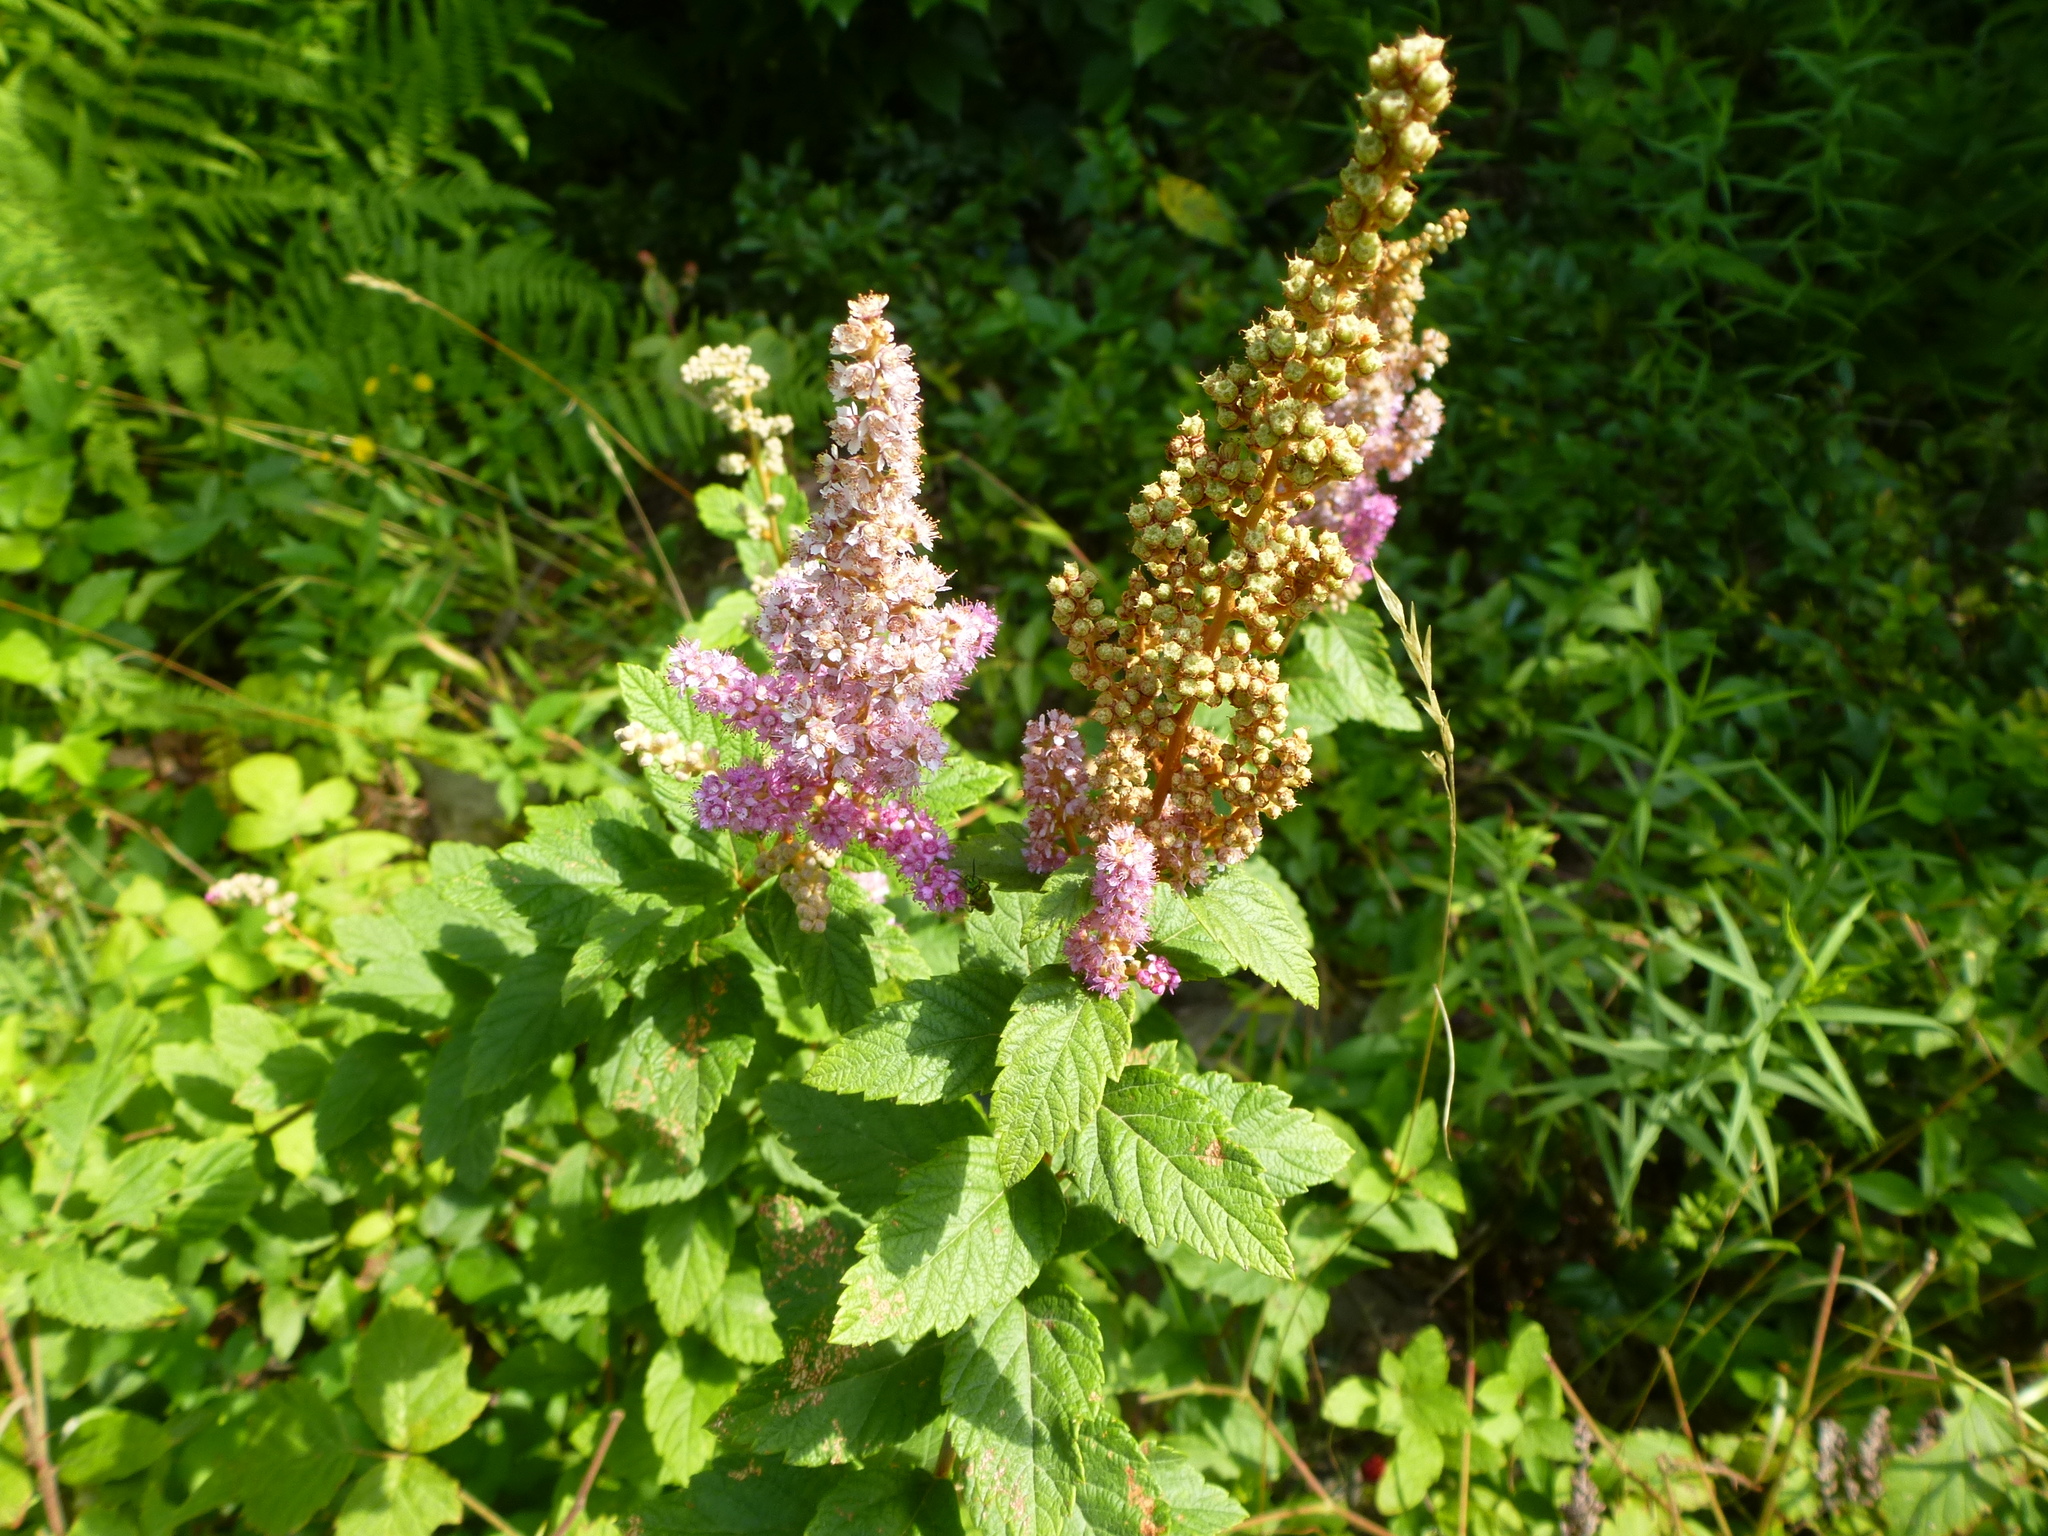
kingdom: Plantae
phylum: Tracheophyta
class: Magnoliopsida
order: Rosales
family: Rosaceae
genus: Spiraea
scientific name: Spiraea tomentosa
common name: Hardhack
